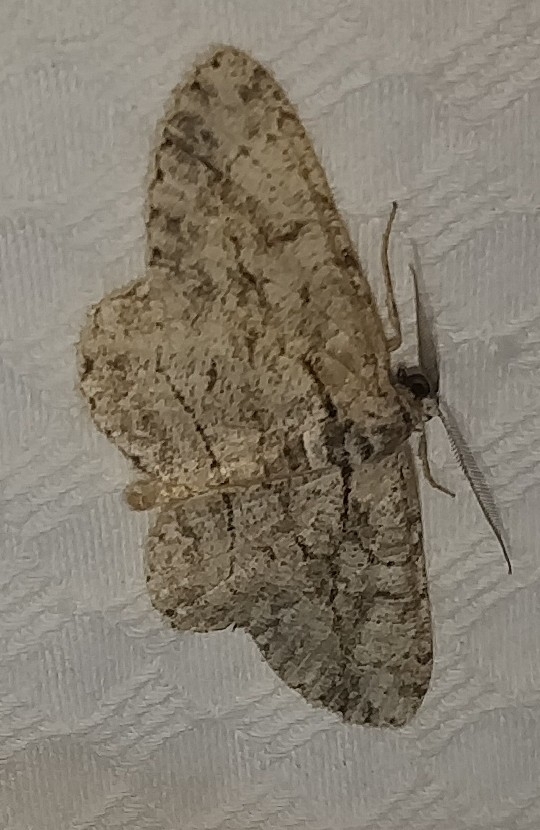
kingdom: Animalia
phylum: Arthropoda
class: Insecta
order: Lepidoptera
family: Geometridae
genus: Anavitrinella
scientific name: Anavitrinella pampinaria
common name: Common gray
